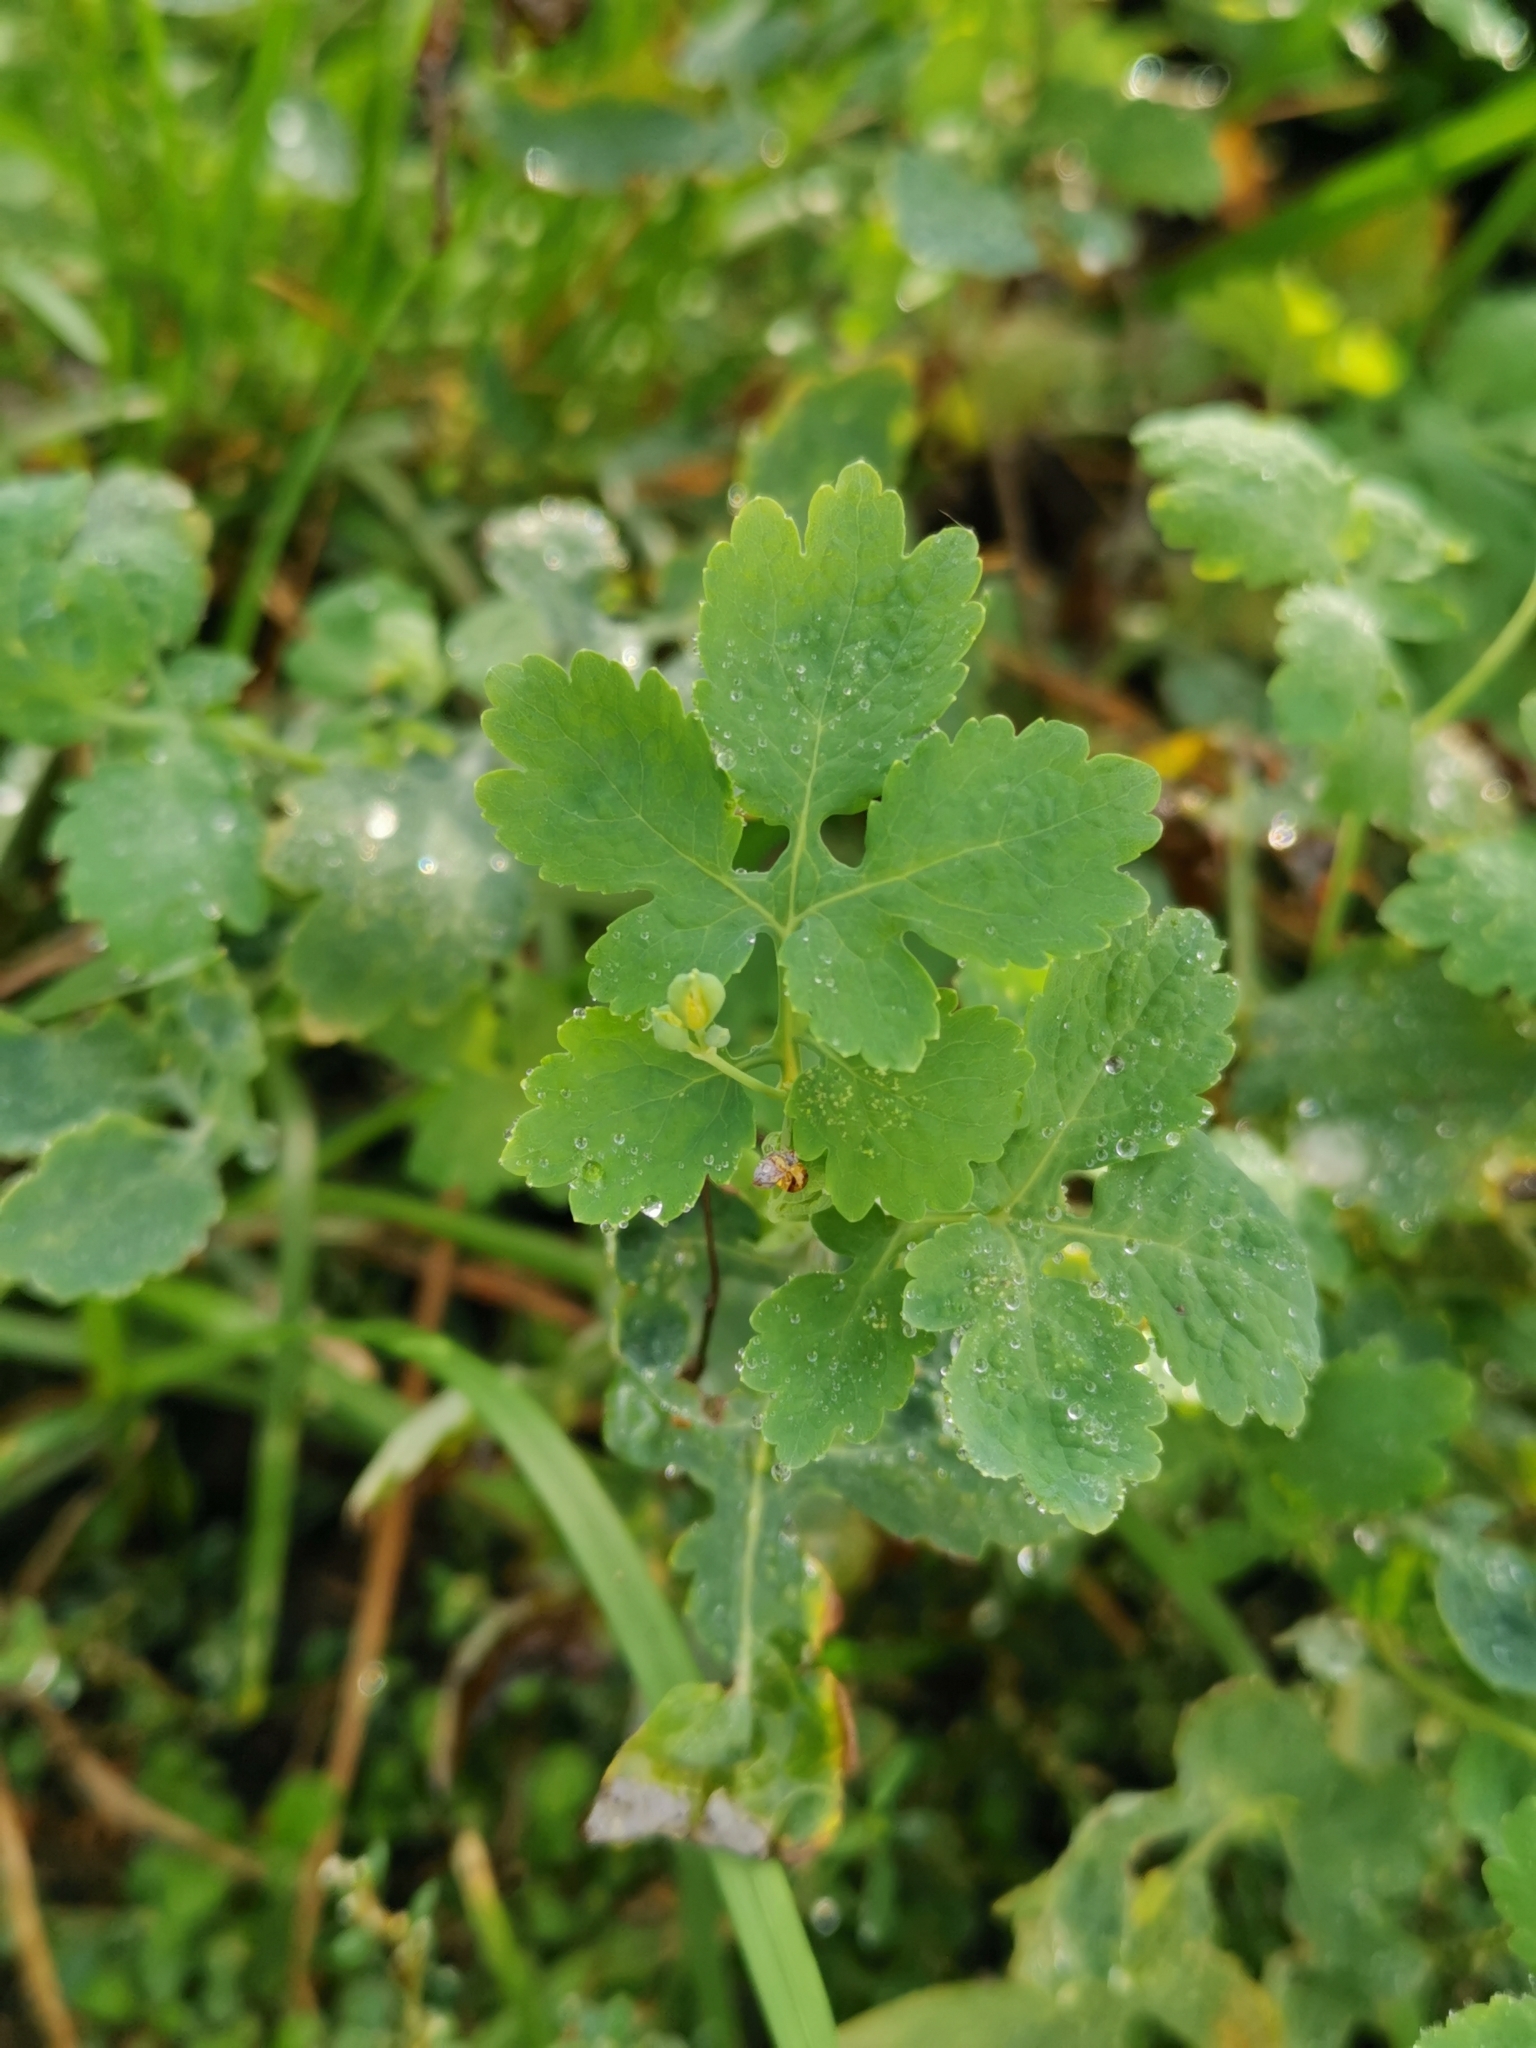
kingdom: Plantae
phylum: Tracheophyta
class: Magnoliopsida
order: Ranunculales
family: Papaveraceae
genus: Chelidonium
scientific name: Chelidonium majus
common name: Greater celandine
